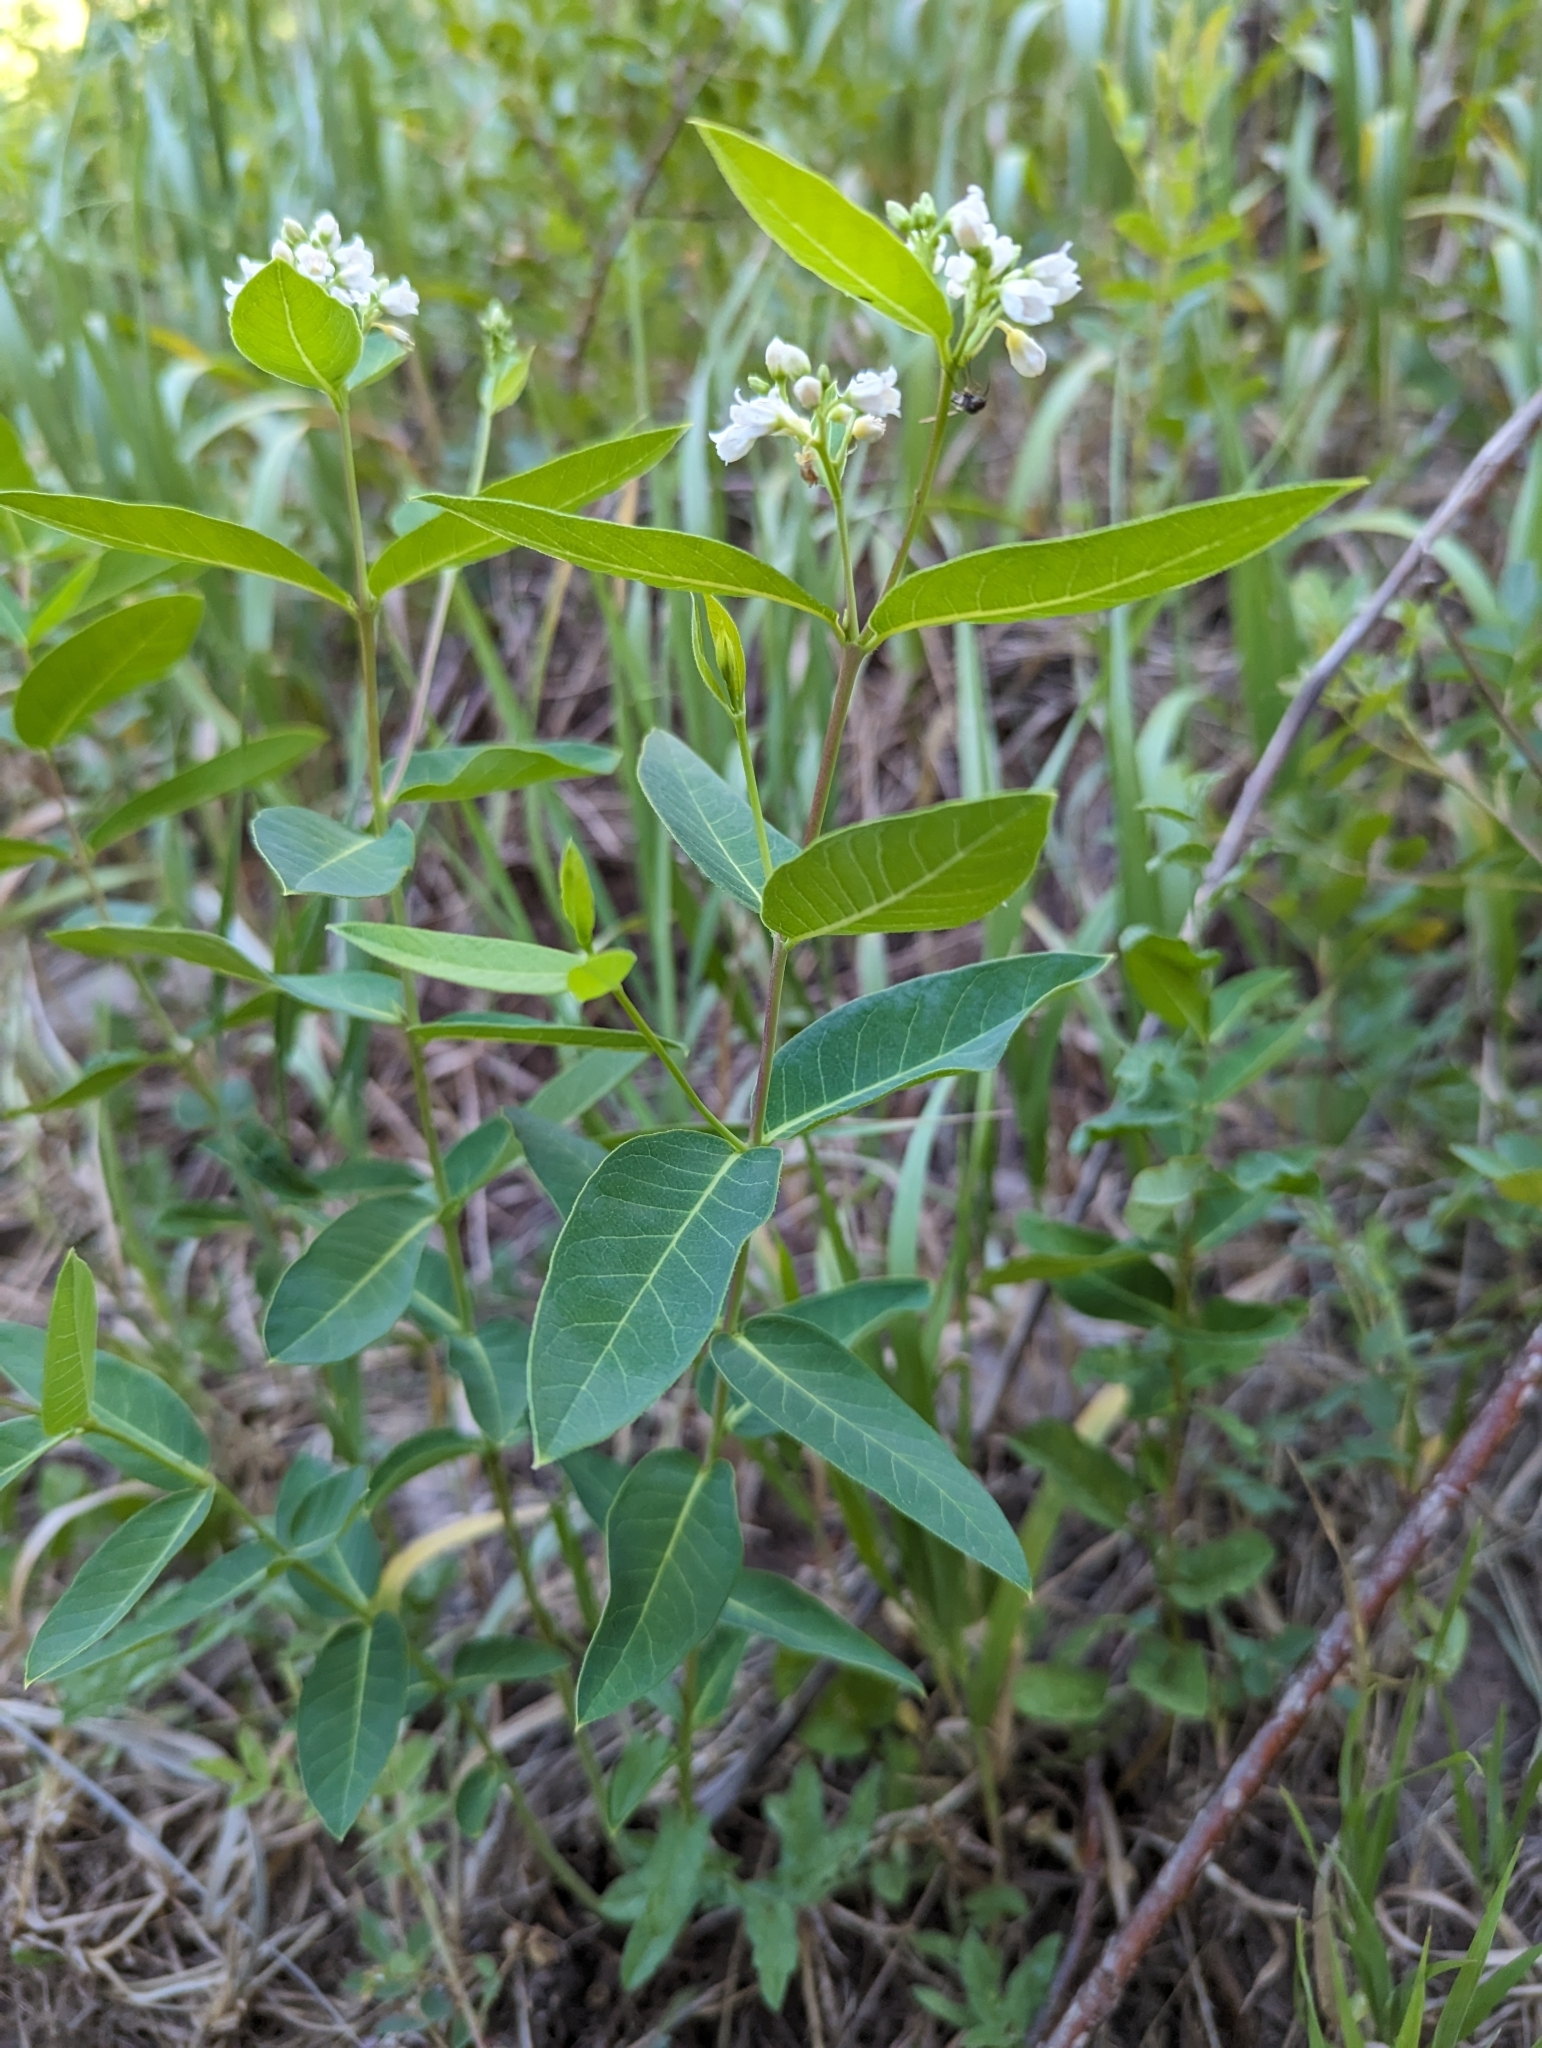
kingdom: Plantae
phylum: Tracheophyta
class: Magnoliopsida
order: Gentianales
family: Apocynaceae
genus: Apocynum
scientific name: Apocynum androsaemifolium
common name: Spreading dogbane
